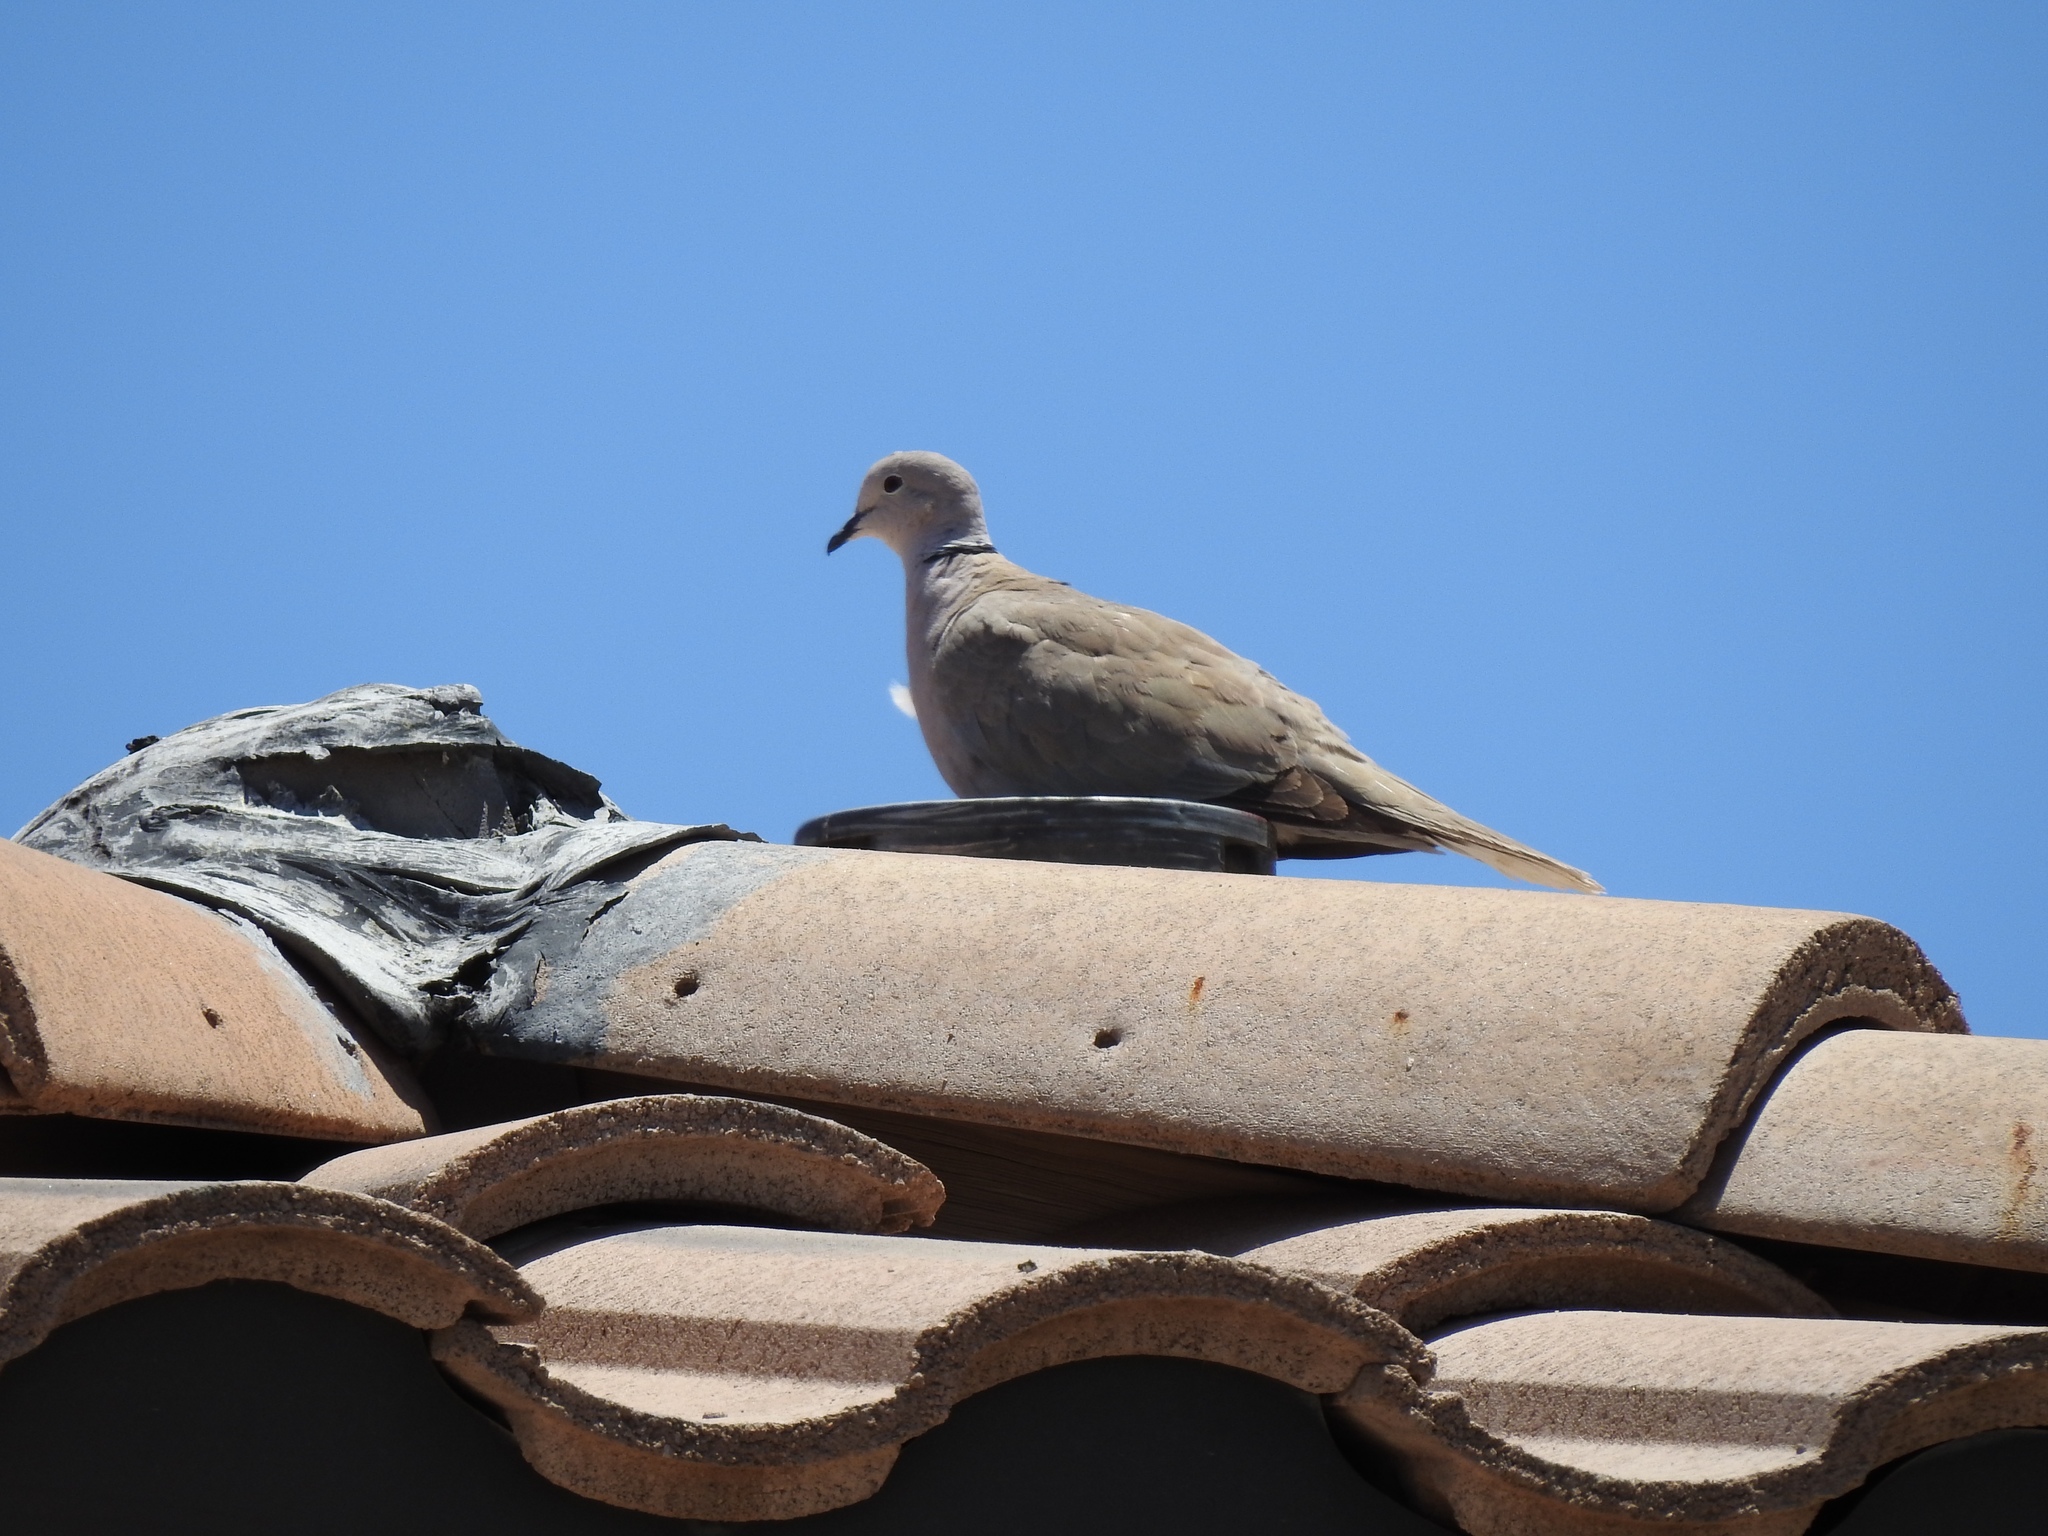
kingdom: Animalia
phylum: Chordata
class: Aves
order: Columbiformes
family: Columbidae
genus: Streptopelia
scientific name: Streptopelia decaocto
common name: Eurasian collared dove
